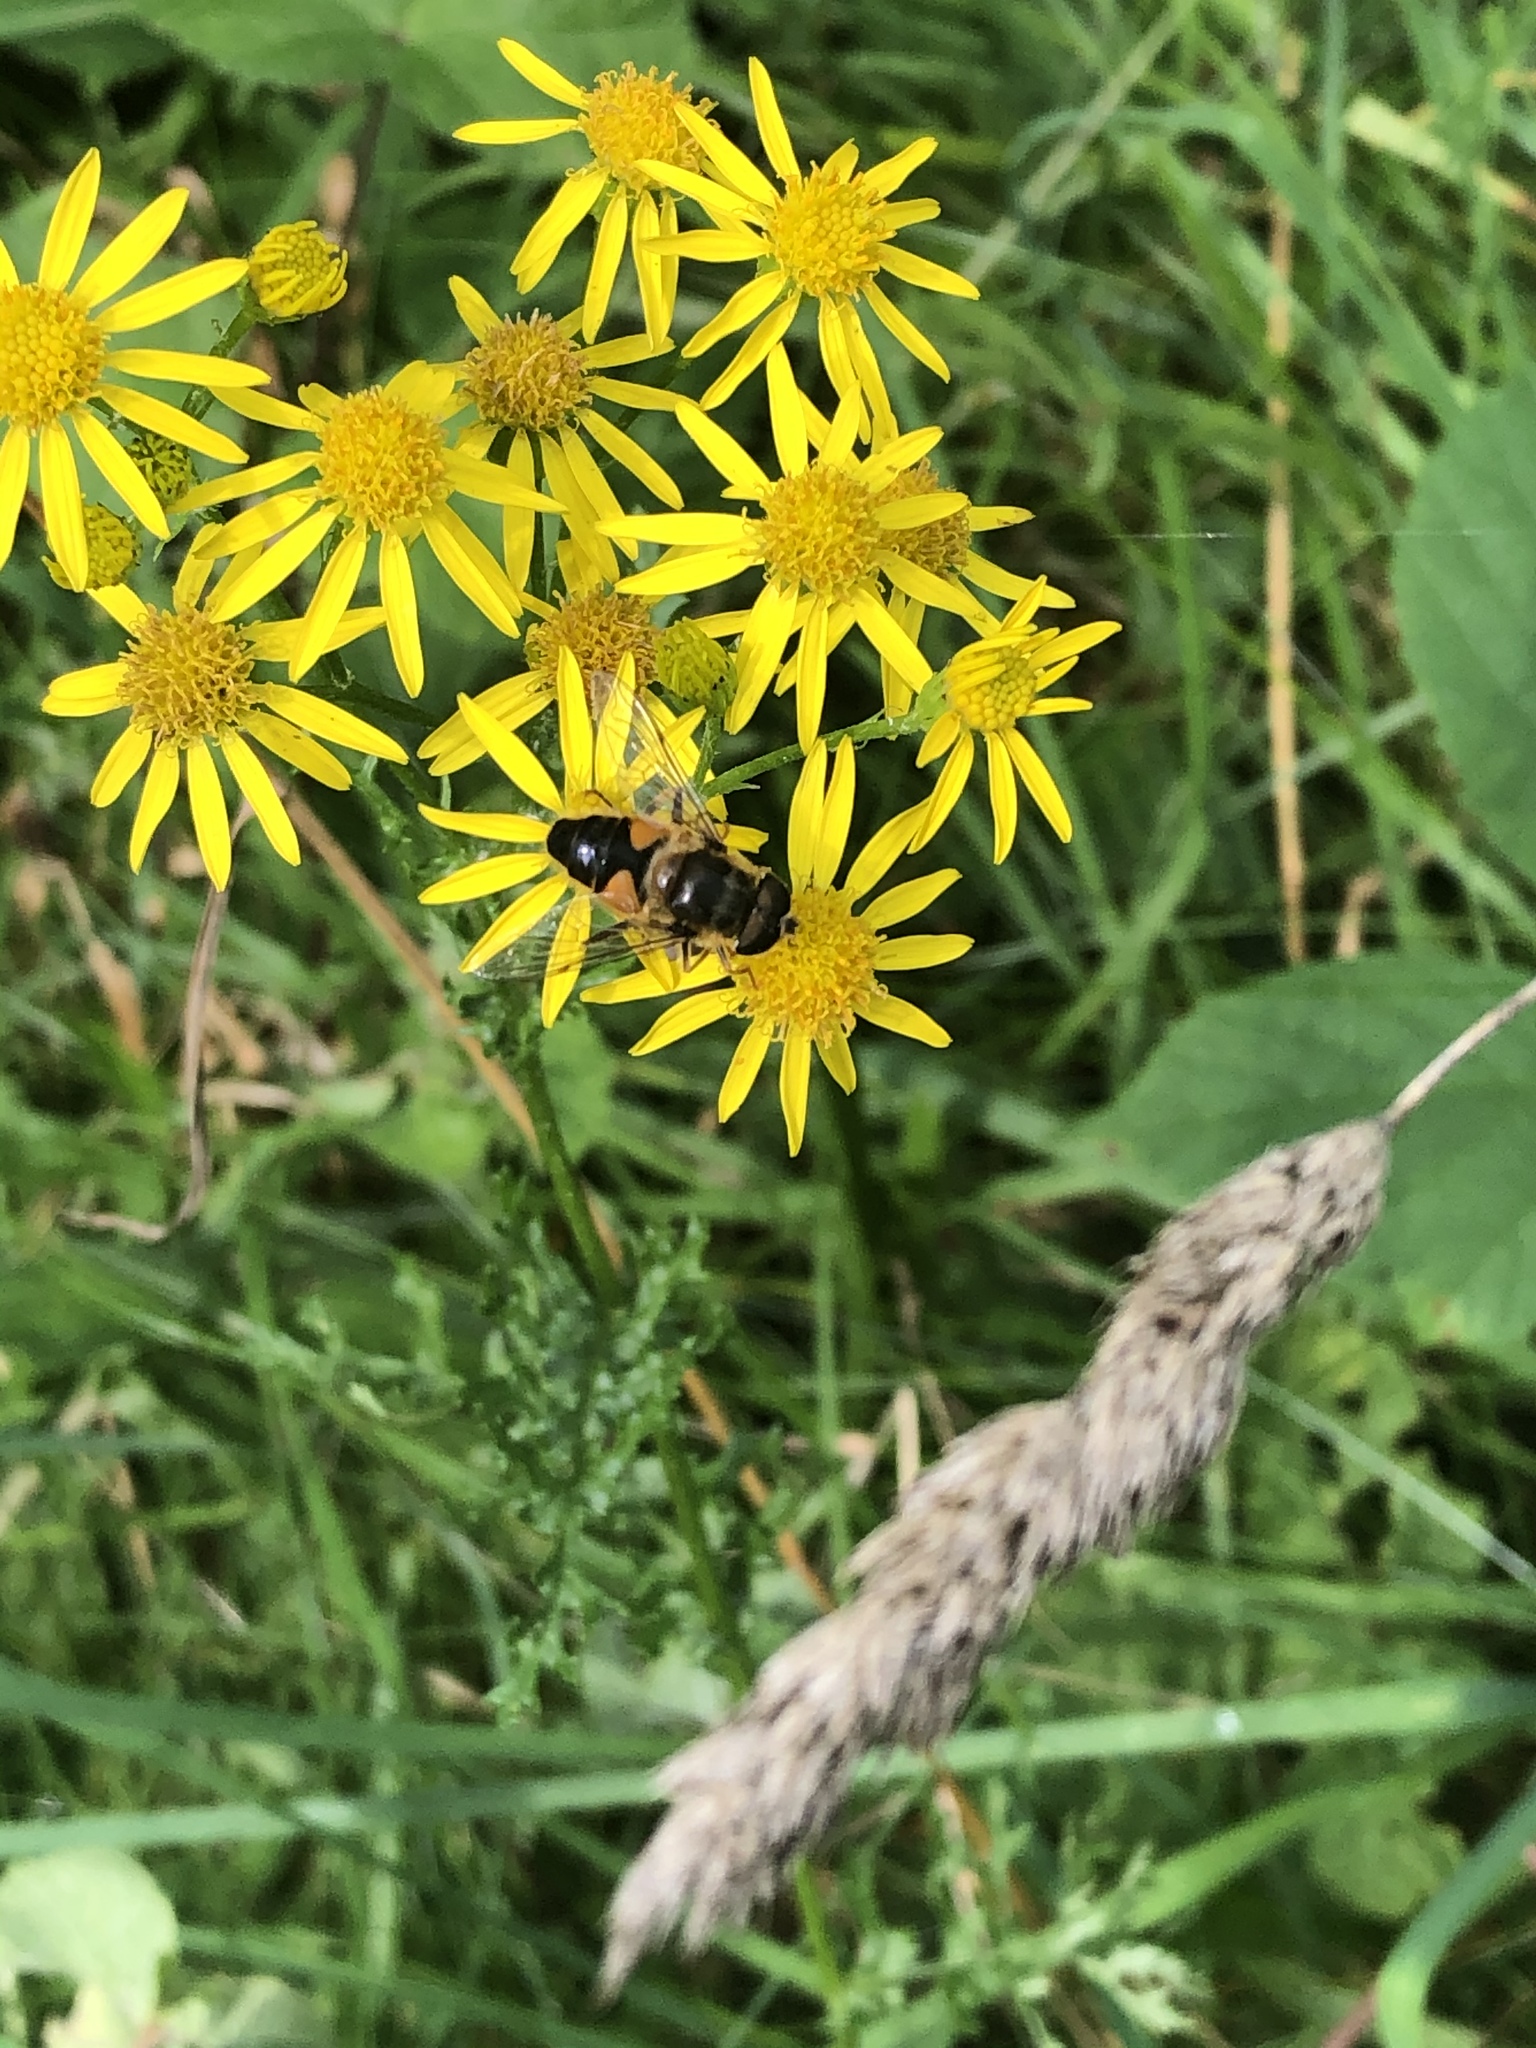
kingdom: Animalia
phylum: Arthropoda
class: Insecta
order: Diptera
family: Syrphidae
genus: Eristalis
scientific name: Eristalis pertinax
